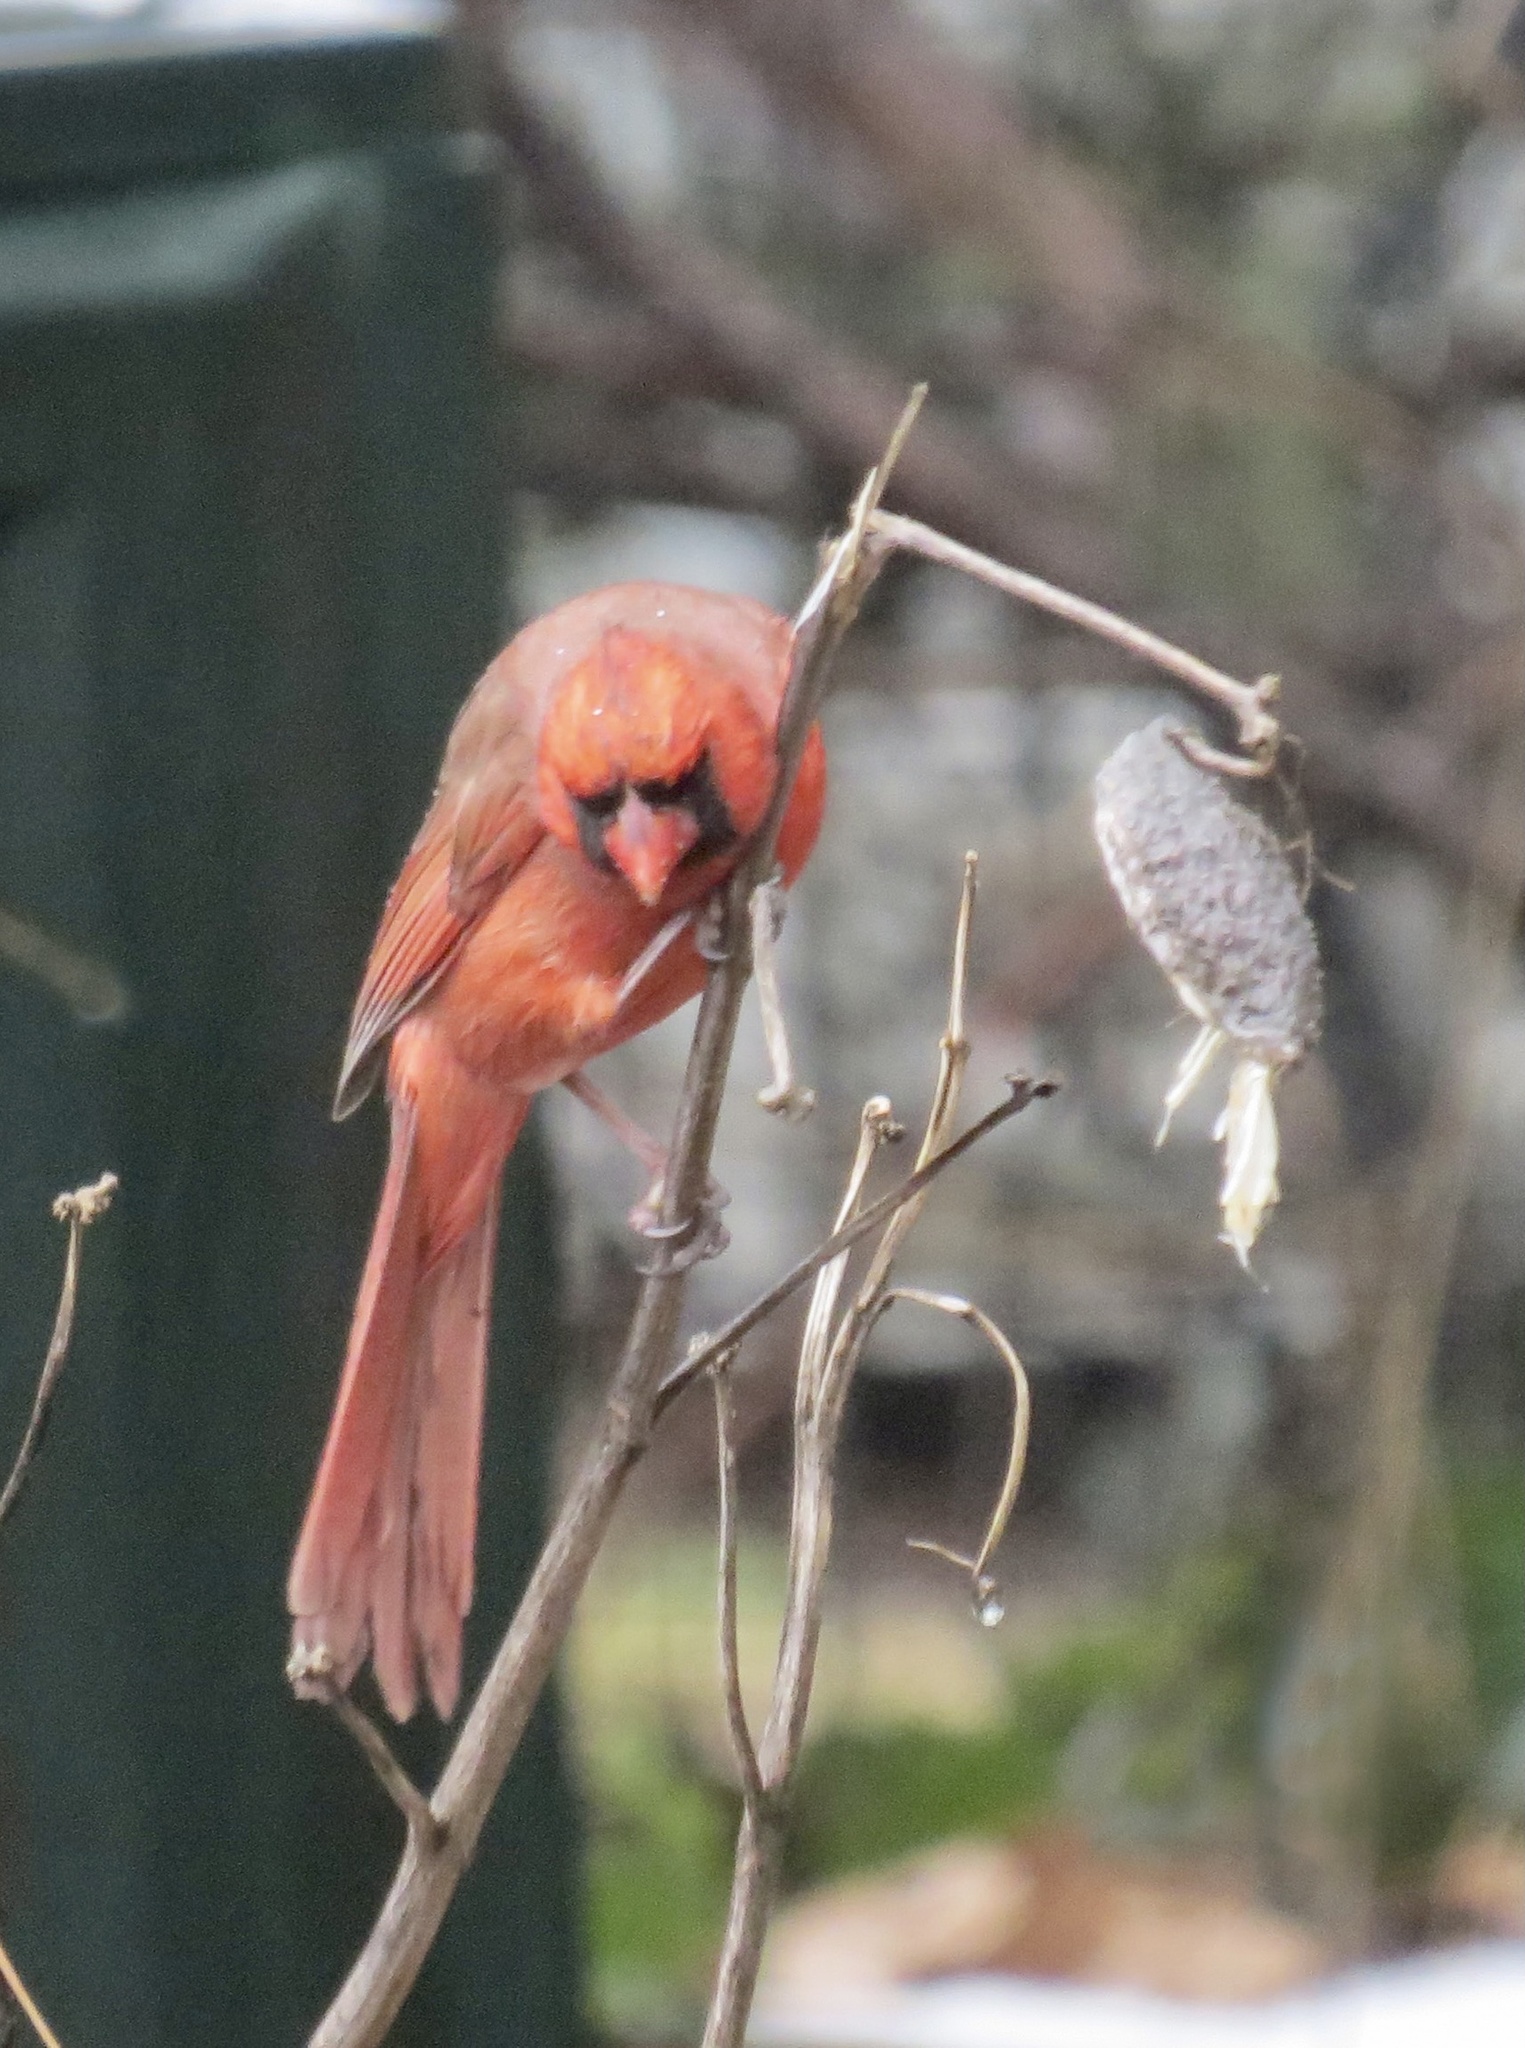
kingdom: Animalia
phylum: Chordata
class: Aves
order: Passeriformes
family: Cardinalidae
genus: Cardinalis
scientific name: Cardinalis cardinalis
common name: Northern cardinal
